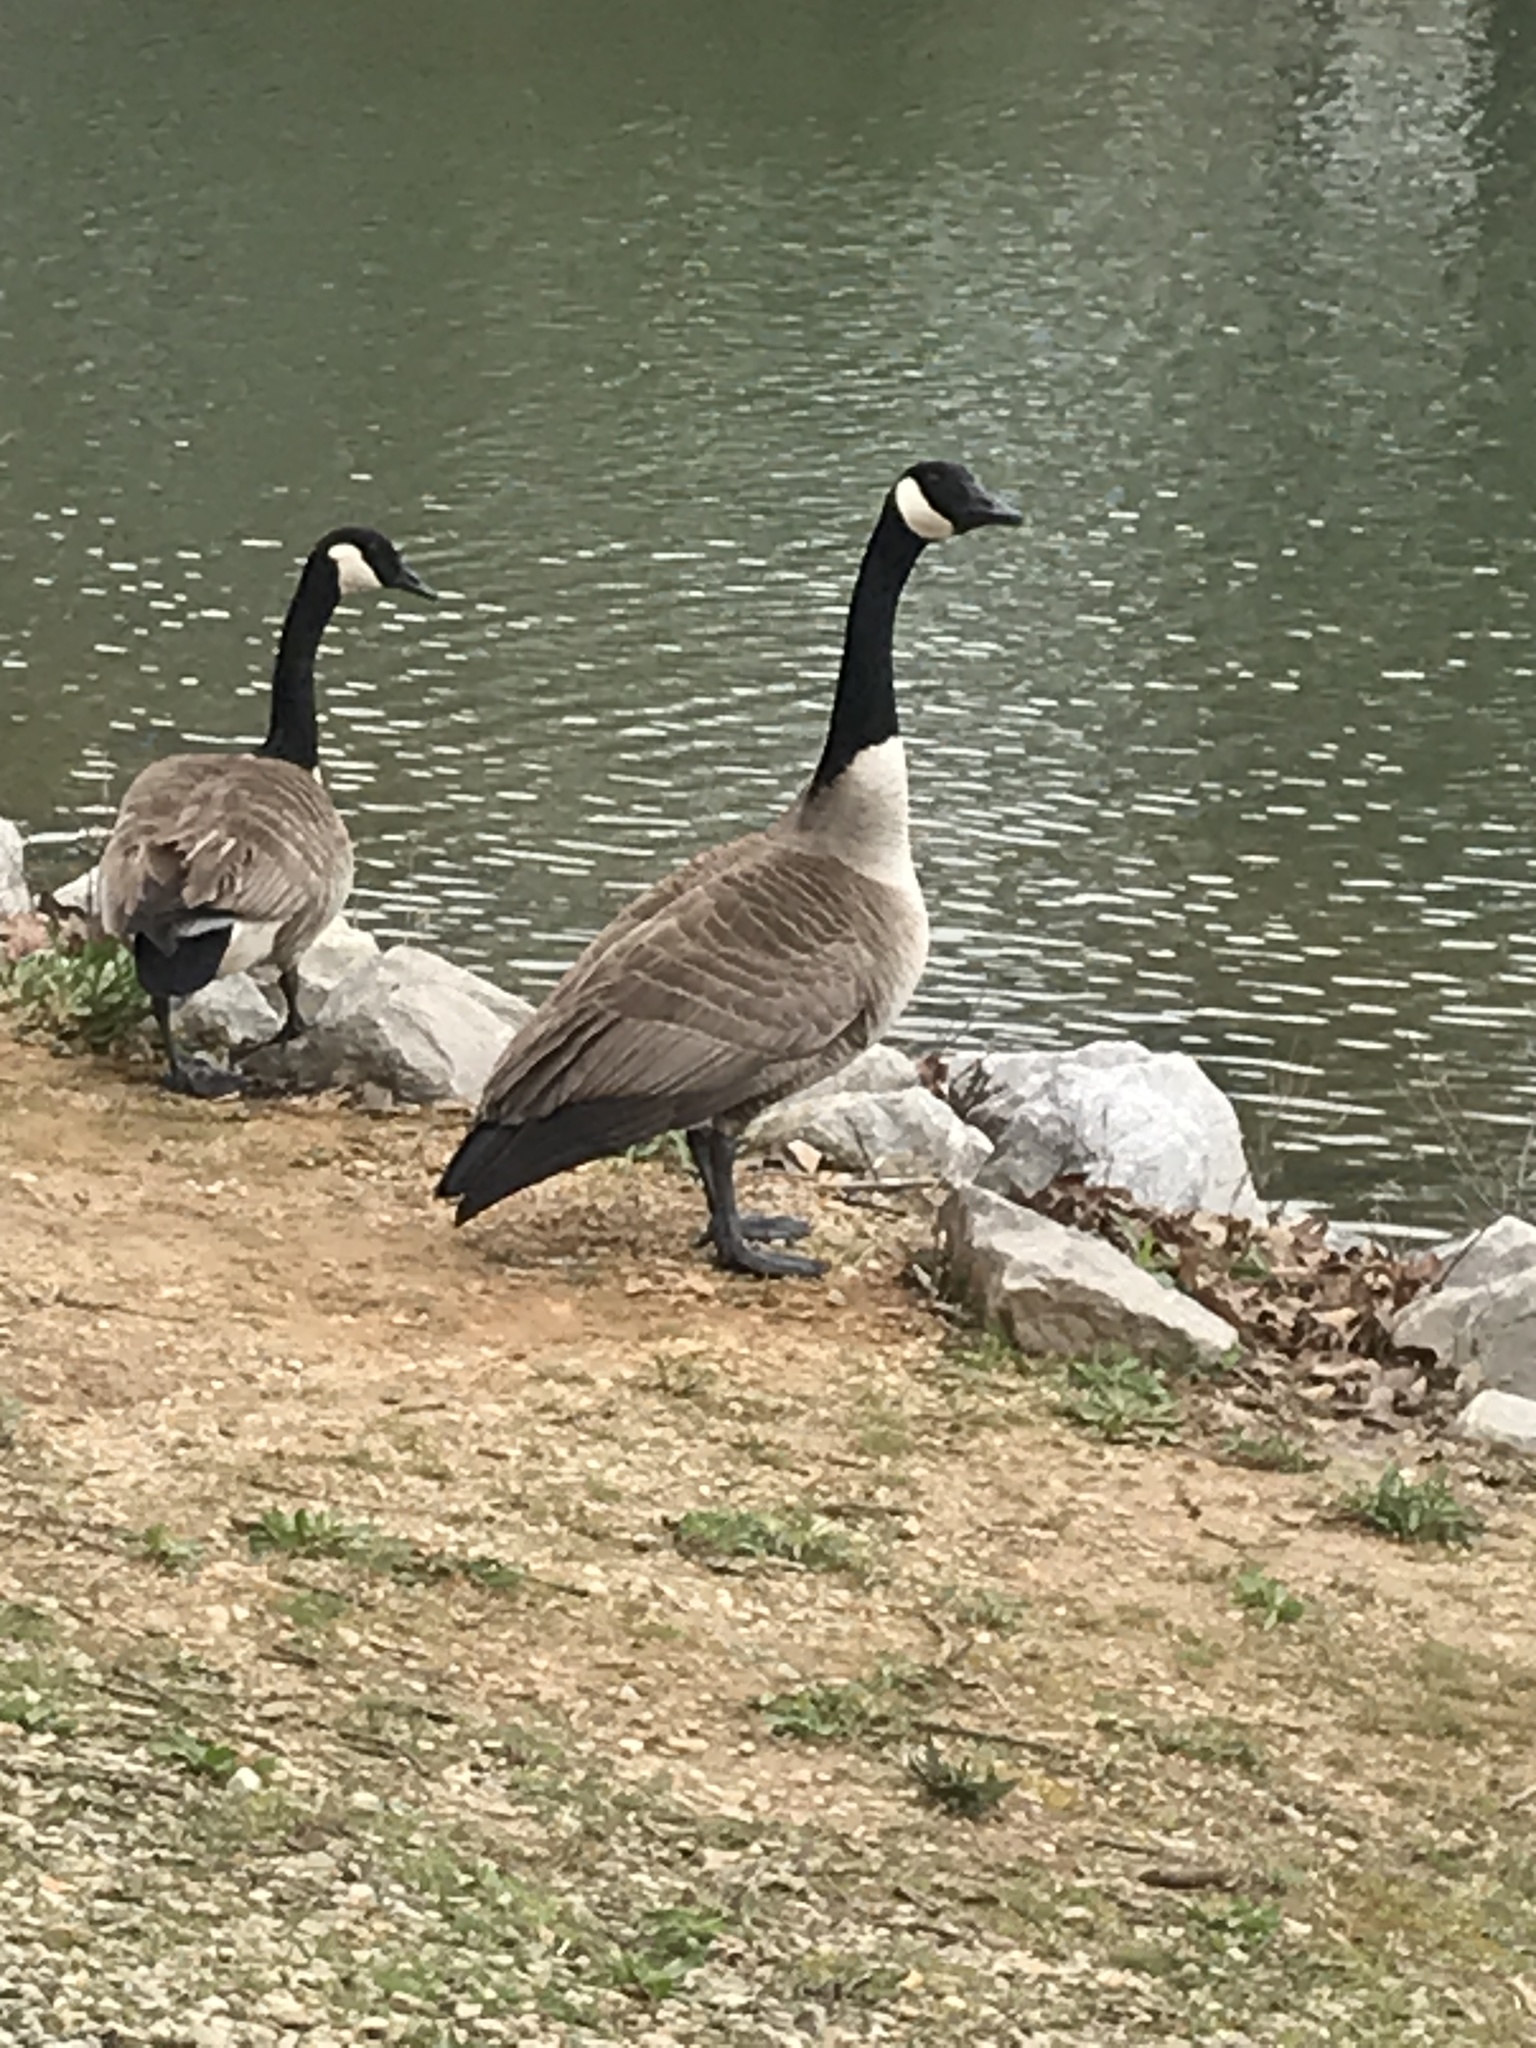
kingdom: Animalia
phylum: Chordata
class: Aves
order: Anseriformes
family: Anatidae
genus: Branta
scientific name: Branta canadensis
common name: Canada goose
